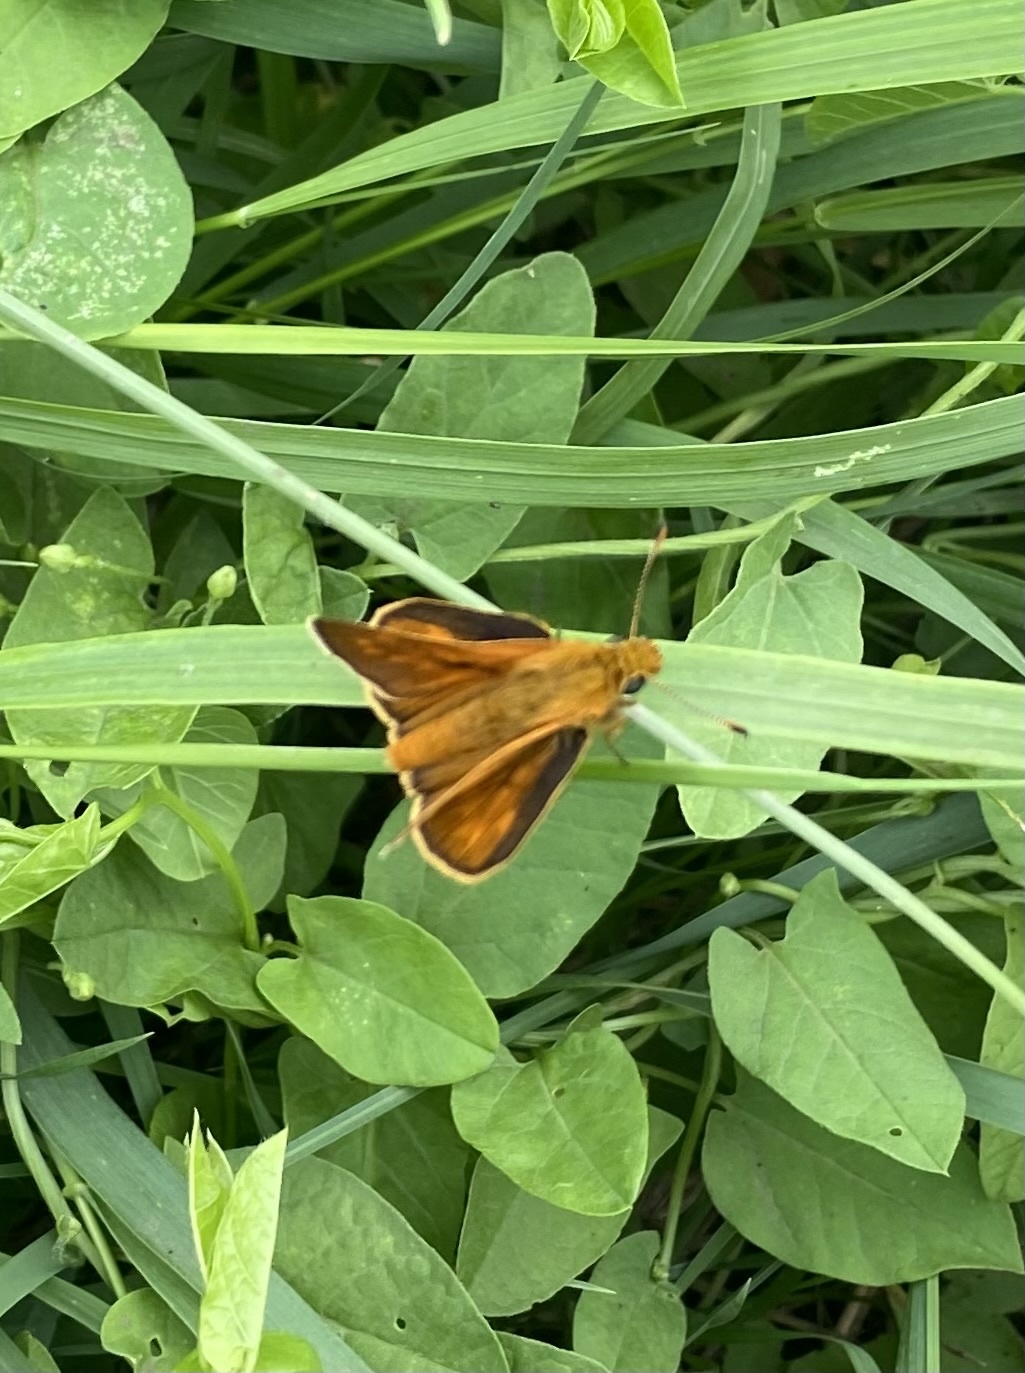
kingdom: Animalia
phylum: Arthropoda
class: Insecta
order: Lepidoptera
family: Hesperiidae
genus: Ochlodes
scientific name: Ochlodes venata
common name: Large skipper
